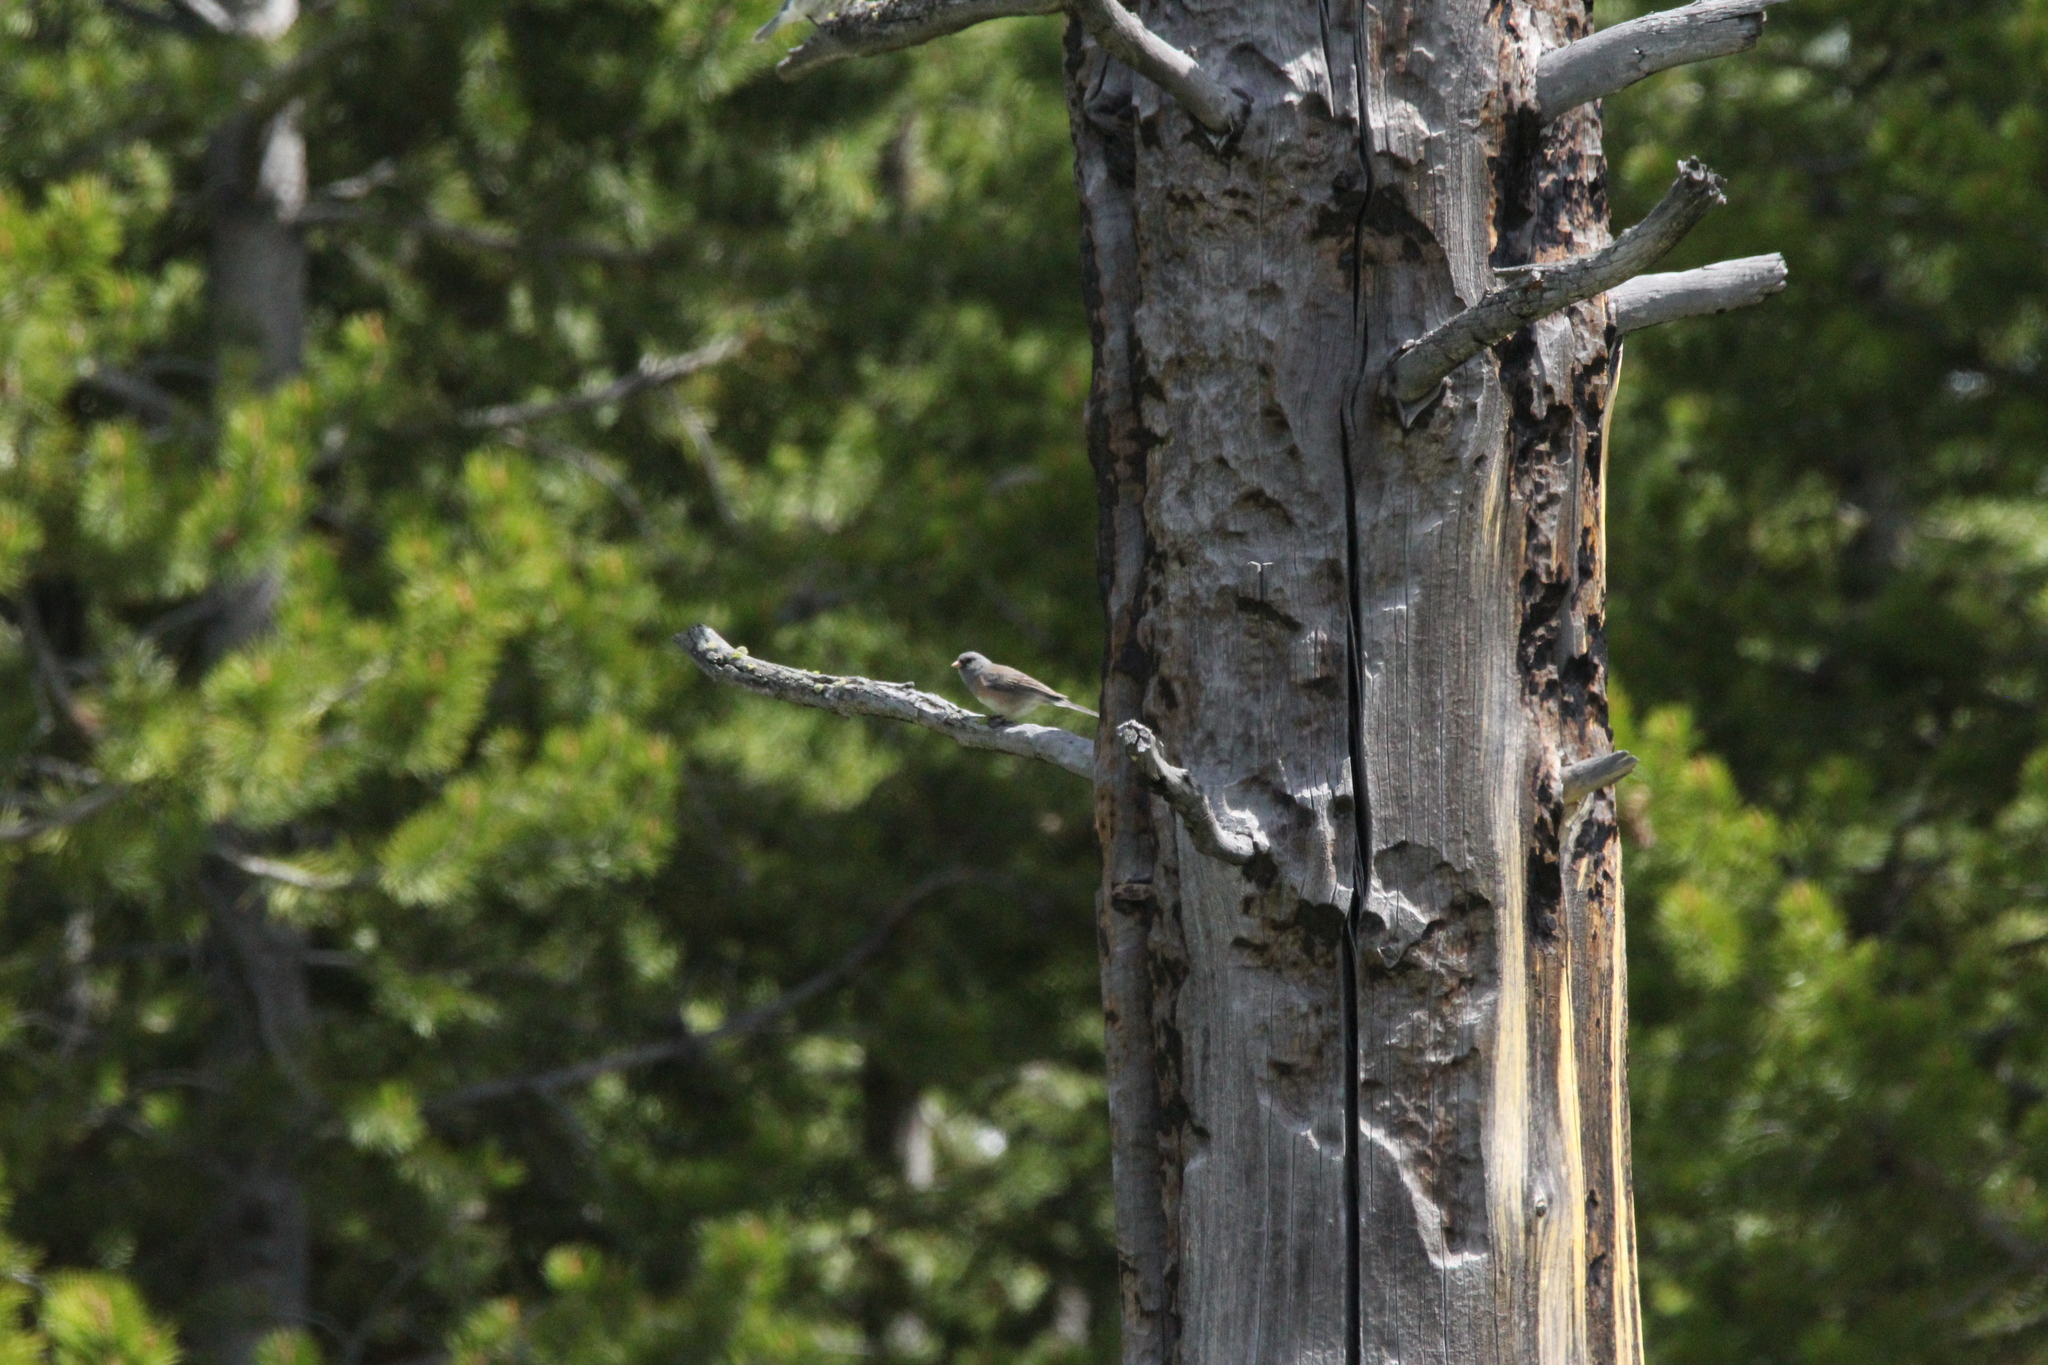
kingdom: Animalia
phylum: Chordata
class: Aves
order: Passeriformes
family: Passerellidae
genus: Junco
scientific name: Junco hyemalis
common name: Dark-eyed junco
